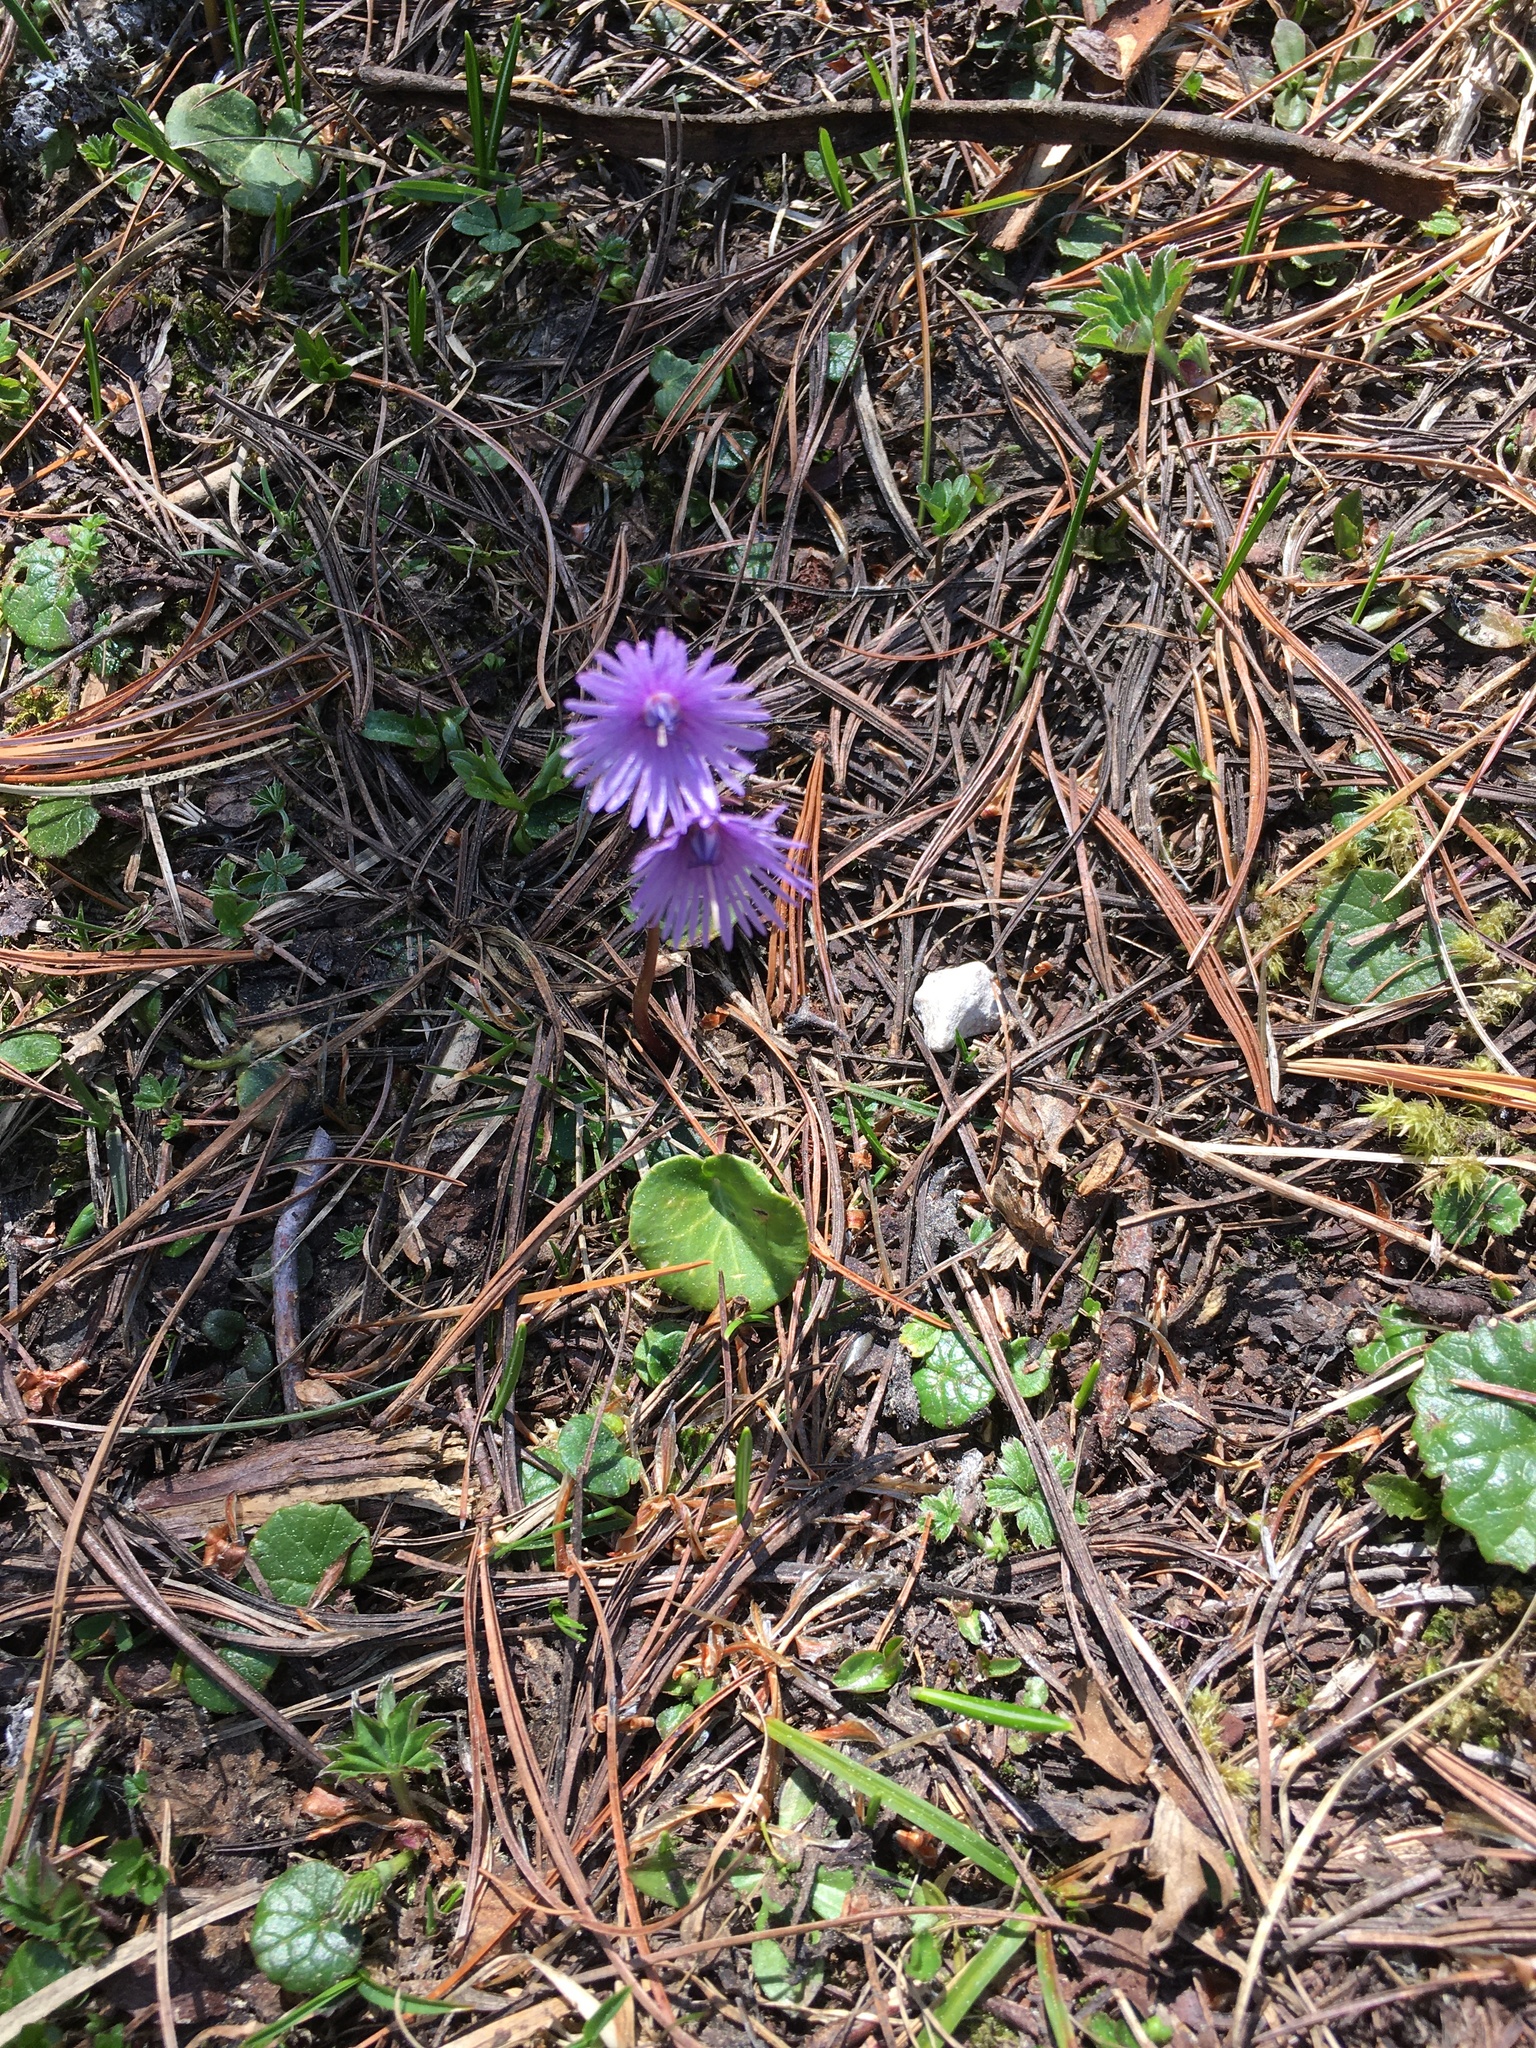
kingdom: Plantae
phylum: Tracheophyta
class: Magnoliopsida
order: Ericales
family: Primulaceae
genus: Soldanella
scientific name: Soldanella alpina
